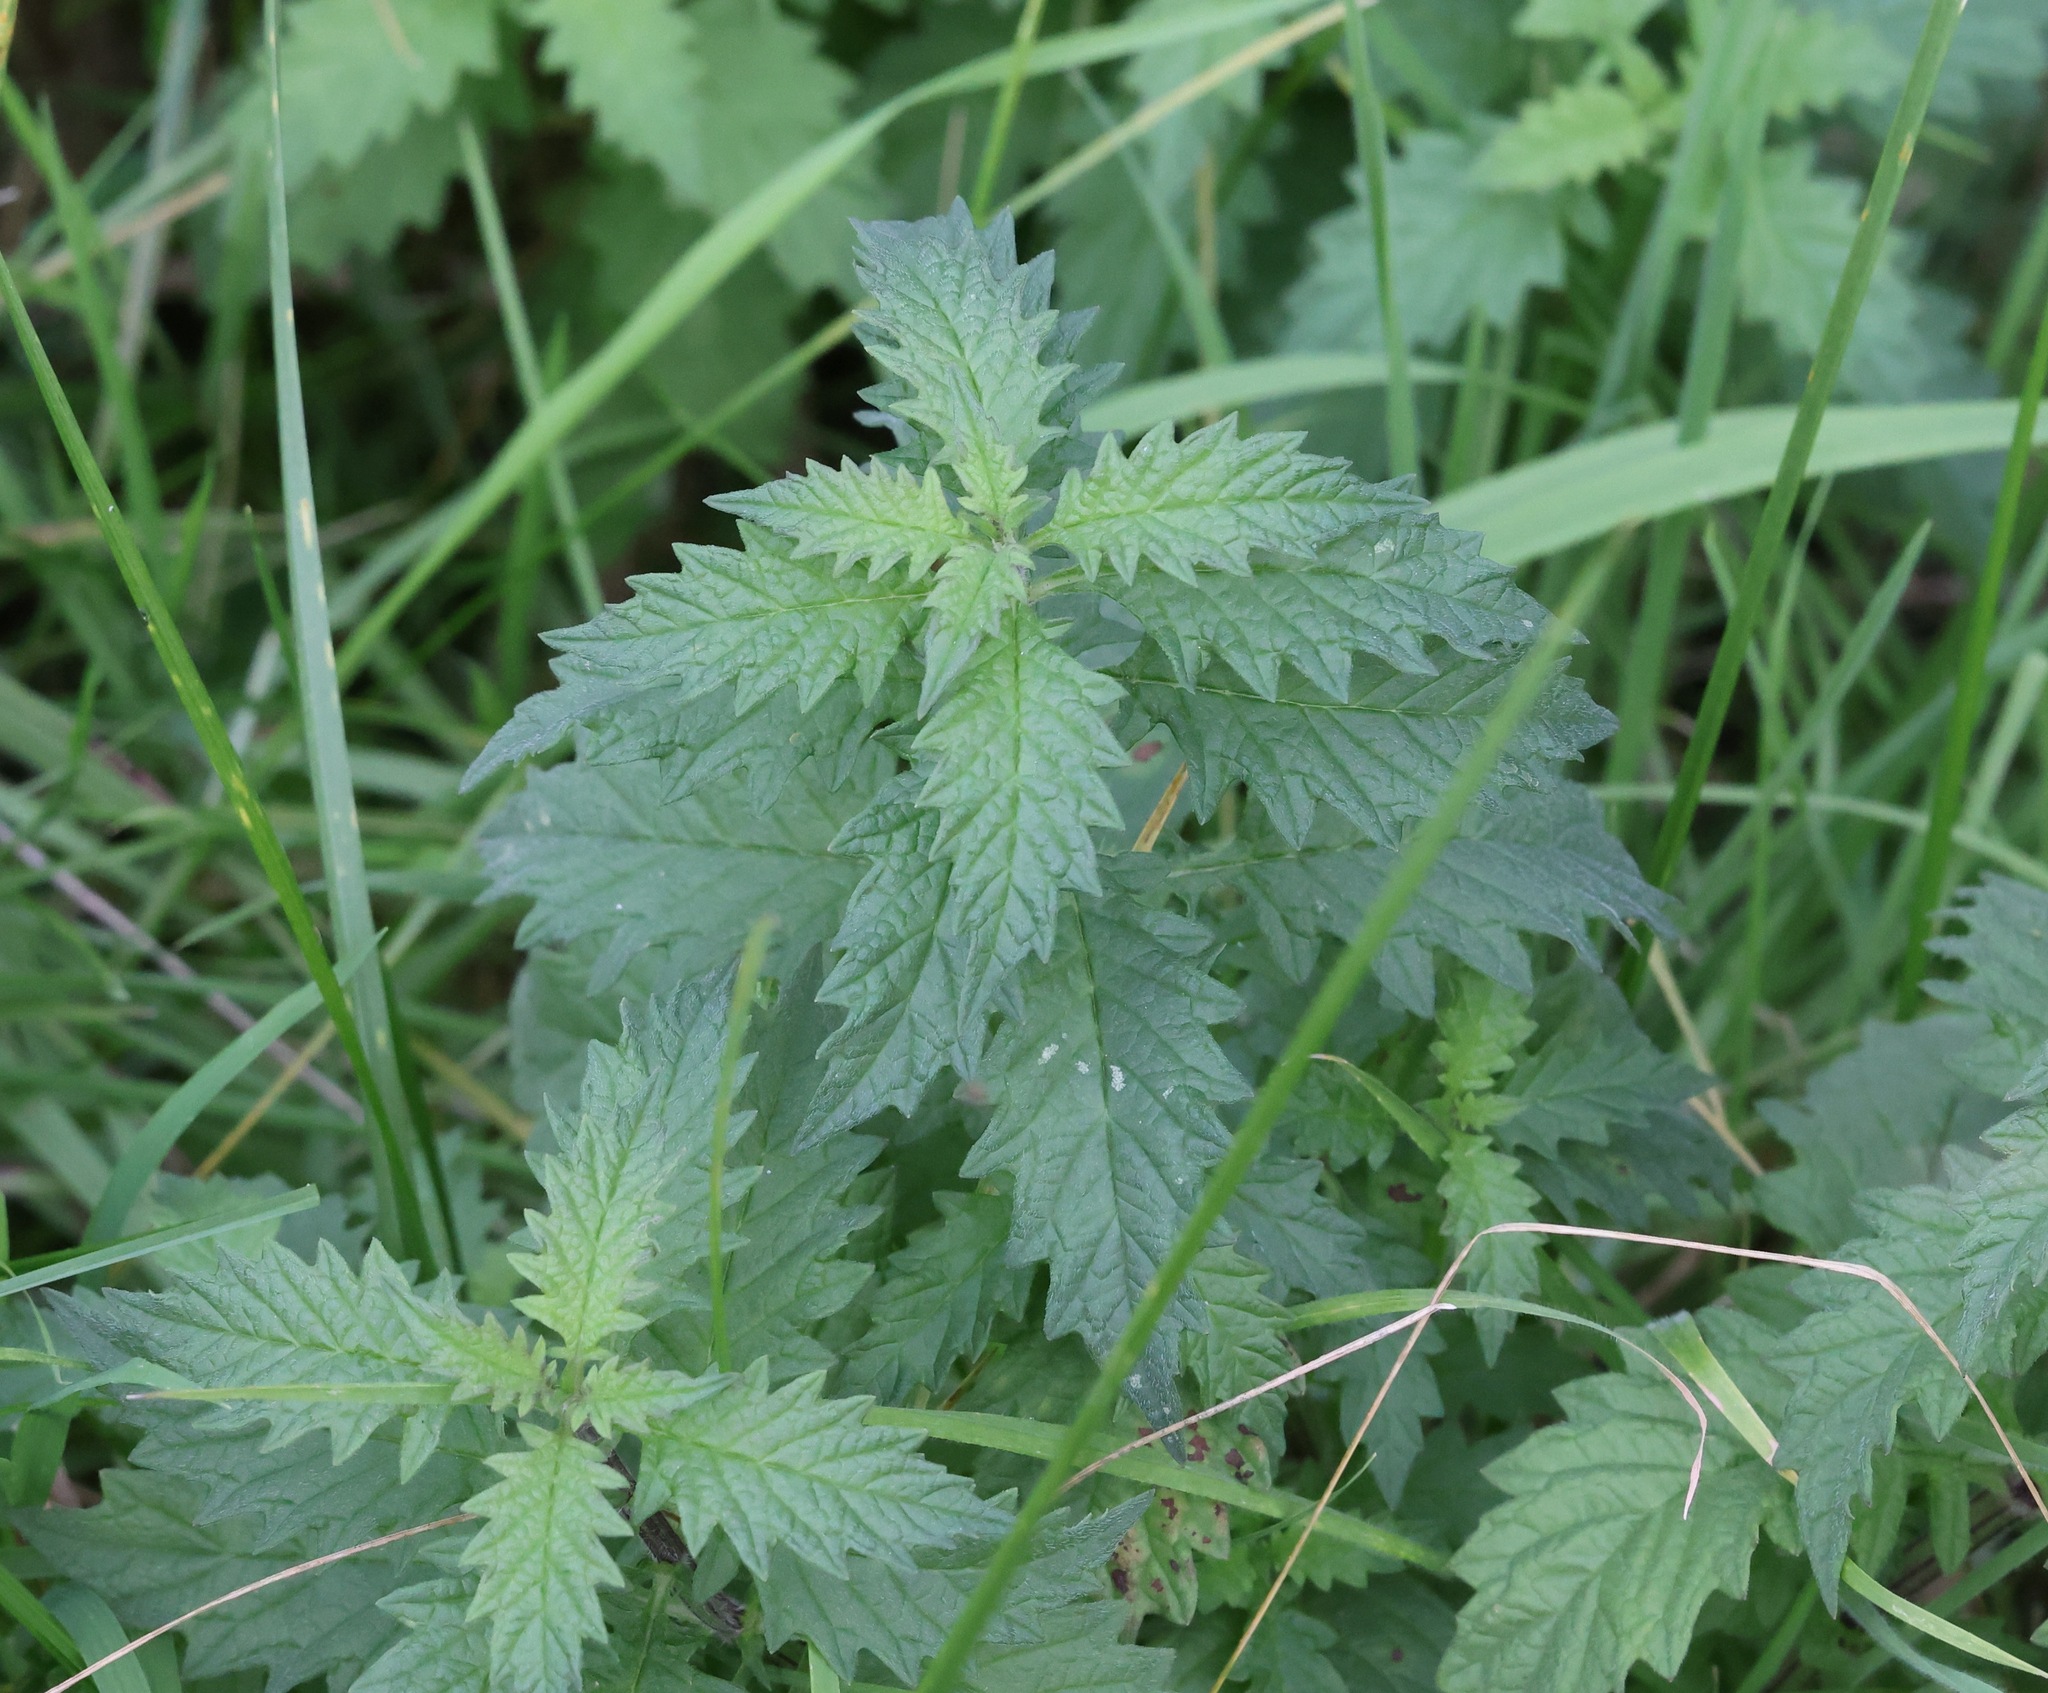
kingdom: Plantae
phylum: Tracheophyta
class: Magnoliopsida
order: Lamiales
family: Lamiaceae
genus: Lycopus
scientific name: Lycopus europaeus
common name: European bugleweed
